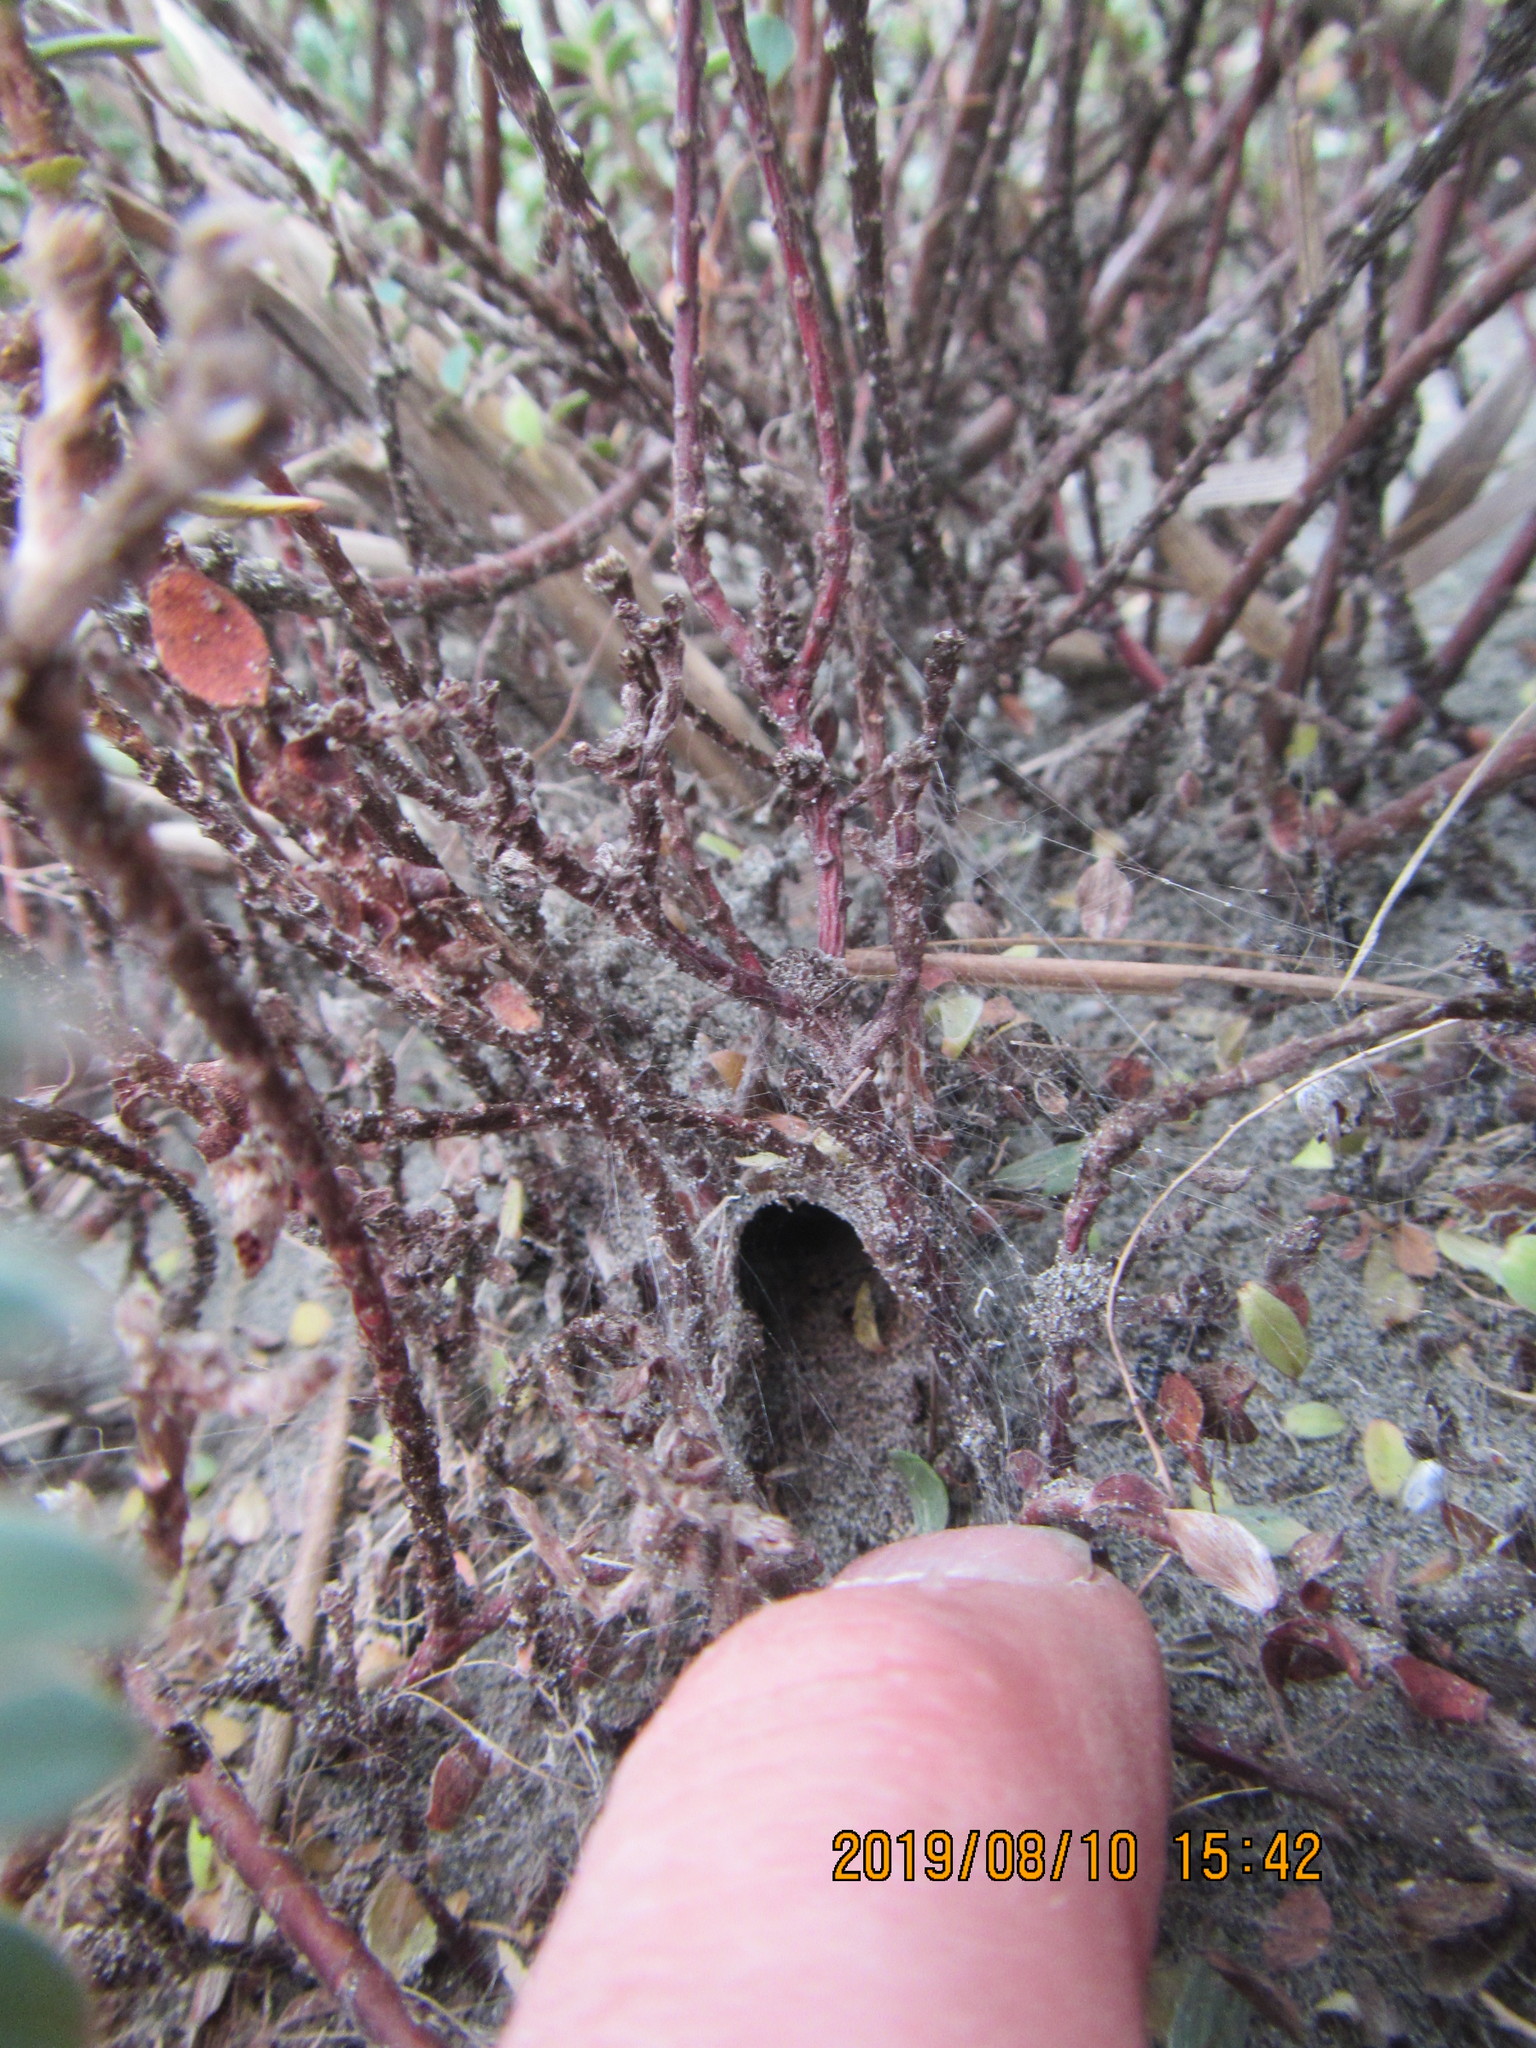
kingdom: Plantae
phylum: Tracheophyta
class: Magnoliopsida
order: Malvales
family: Thymelaeaceae
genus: Pimelea
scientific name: Pimelea villosa
